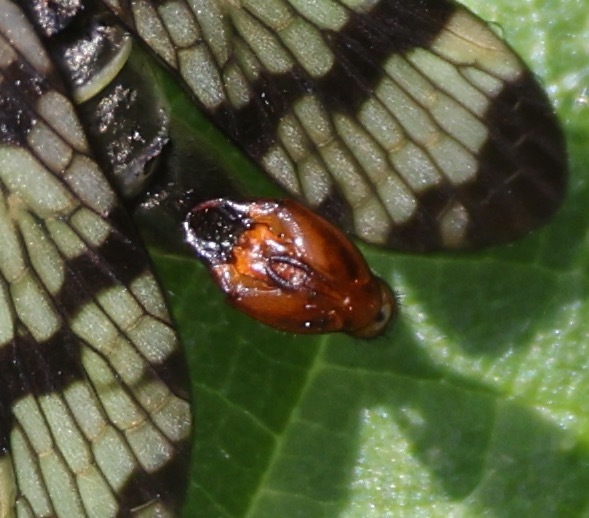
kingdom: Animalia
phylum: Arthropoda
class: Insecta
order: Mecoptera
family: Panorpidae
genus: Panorpa
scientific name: Panorpa communis
